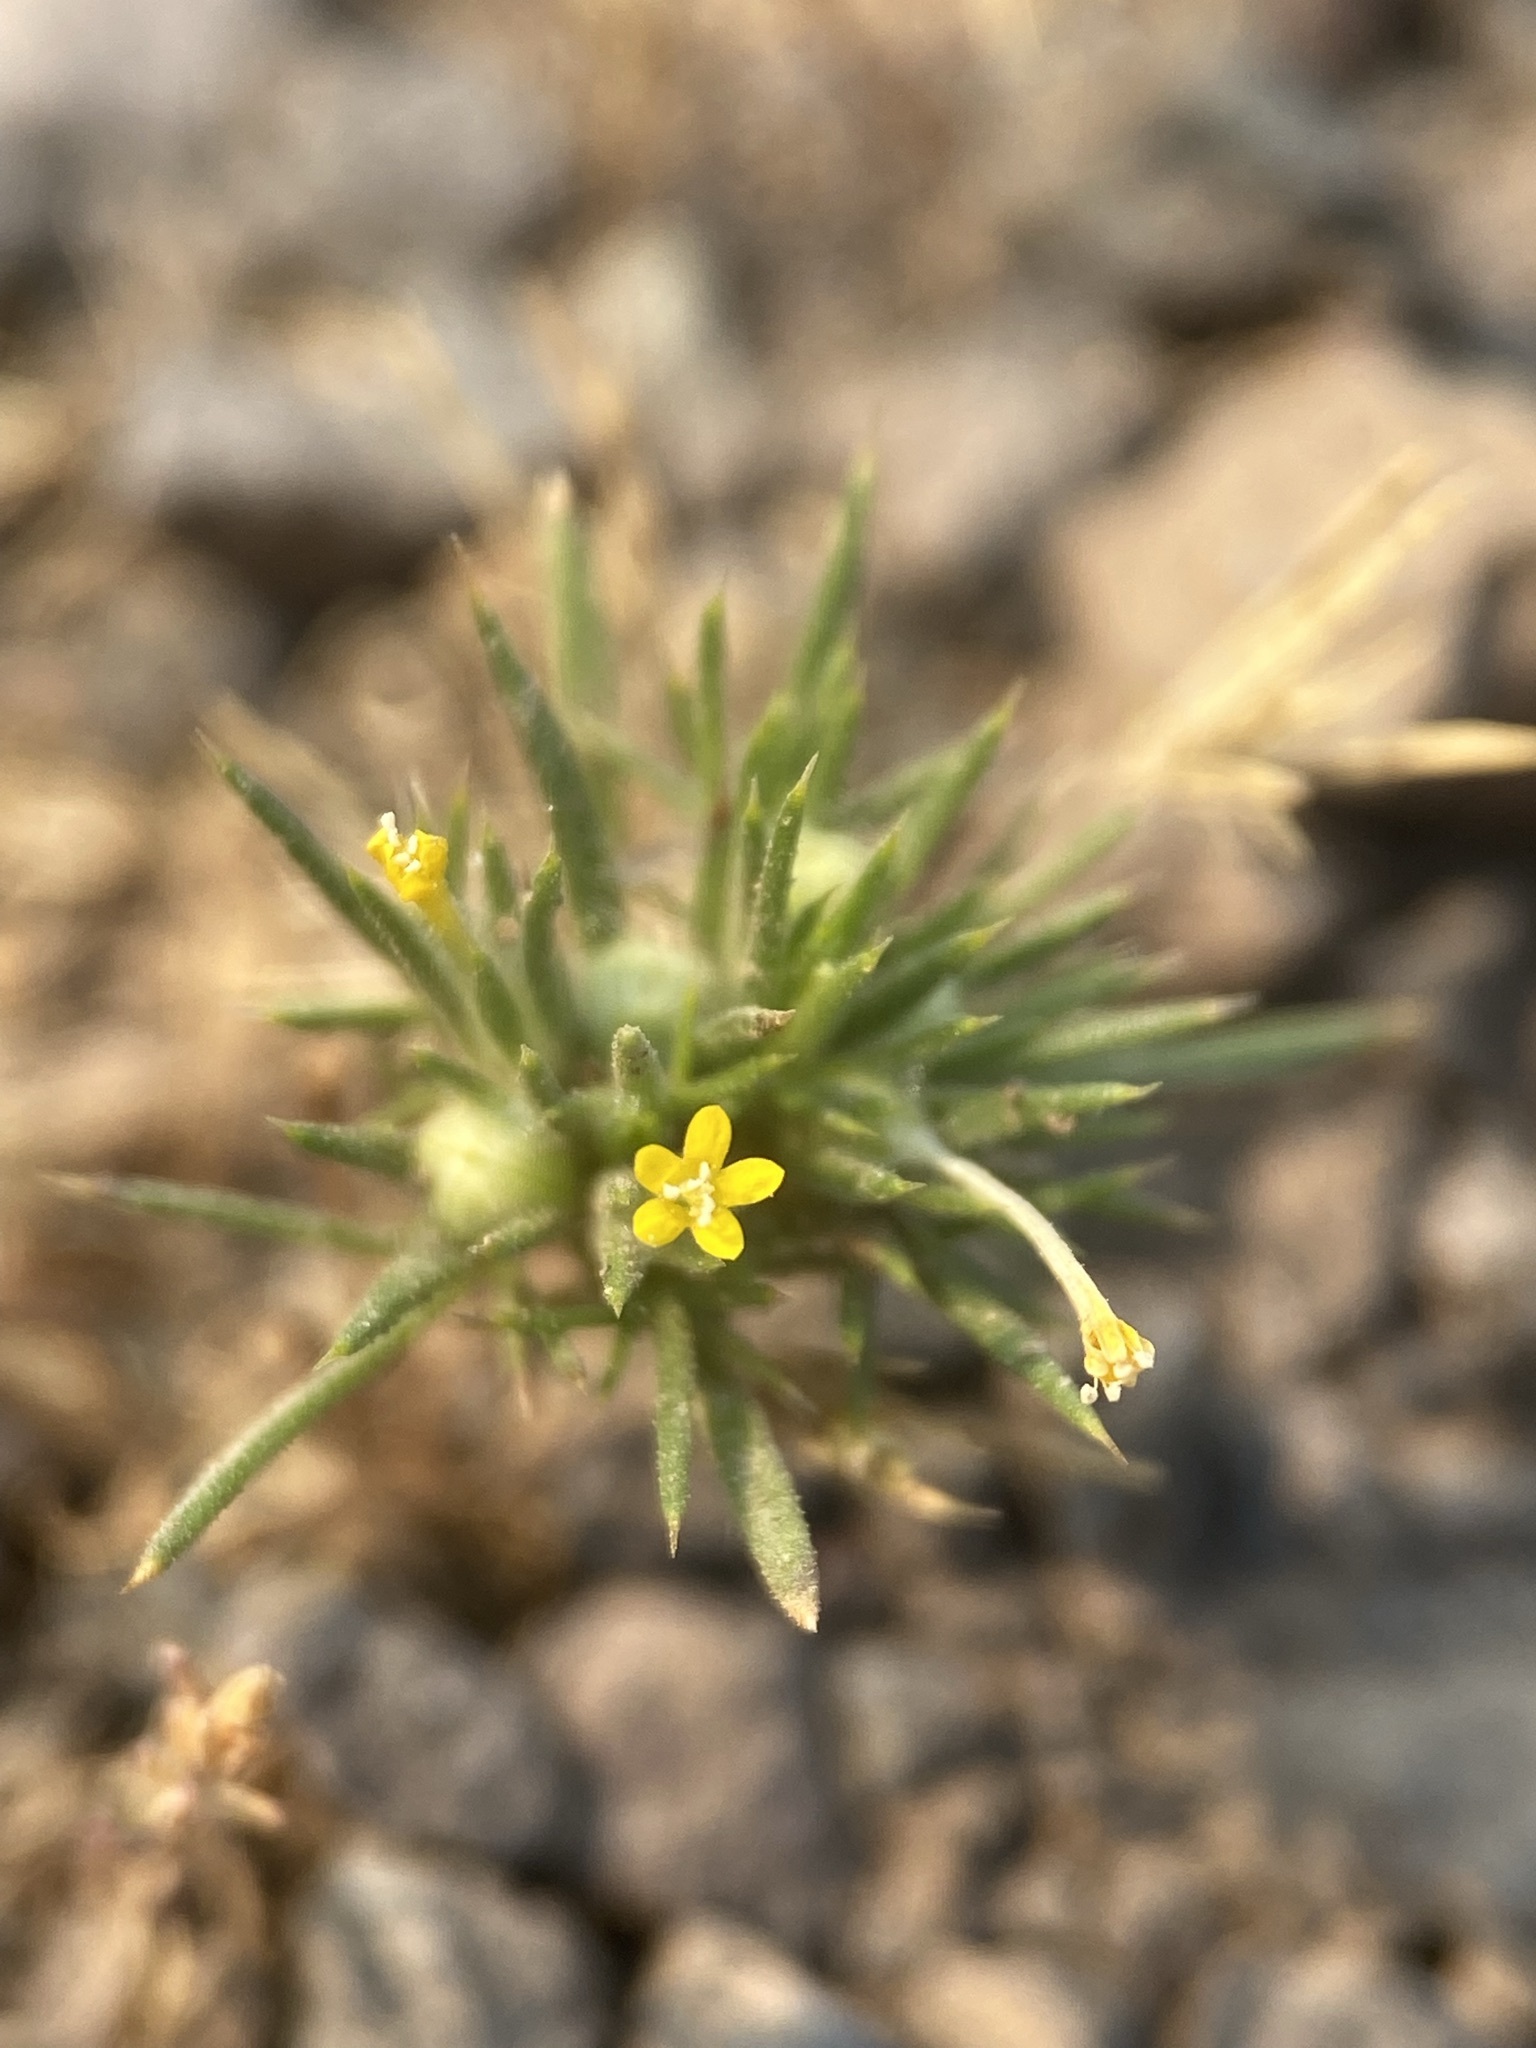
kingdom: Plantae
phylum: Tracheophyta
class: Magnoliopsida
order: Ericales
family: Polemoniaceae
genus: Navarretia
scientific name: Navarretia breweri
